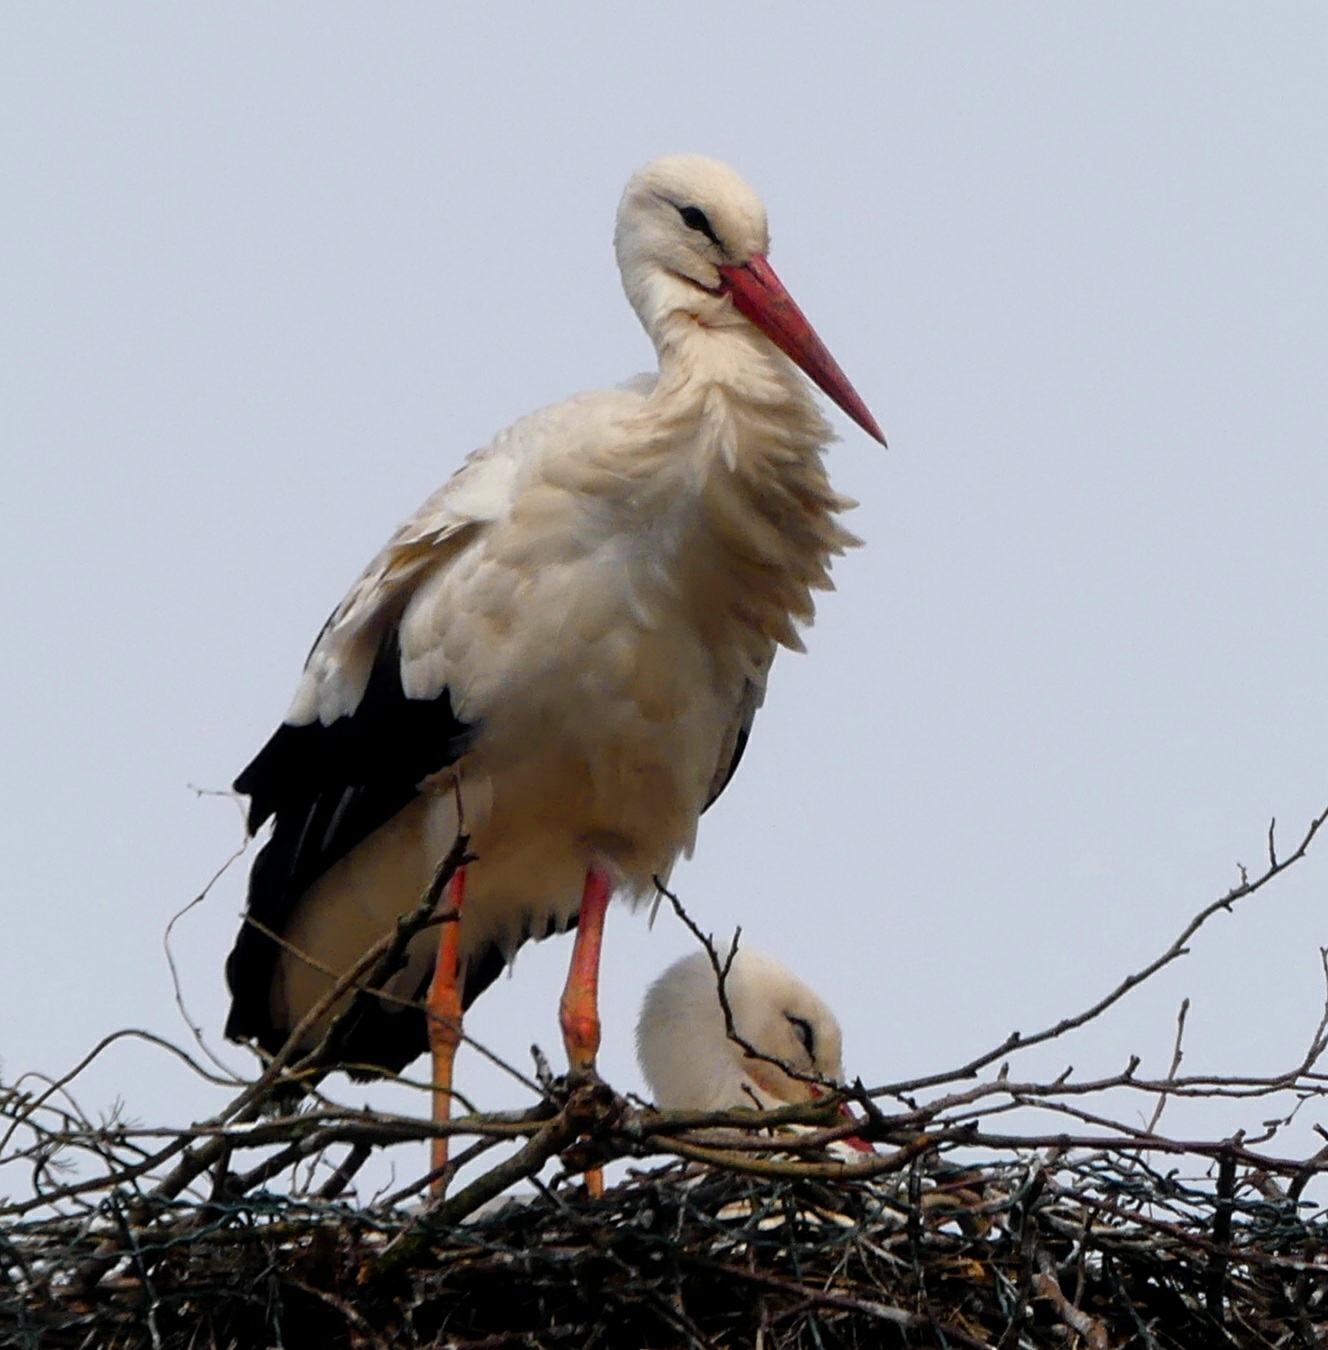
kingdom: Animalia
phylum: Chordata
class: Aves
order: Ciconiiformes
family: Ciconiidae
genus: Ciconia
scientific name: Ciconia ciconia
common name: White stork
